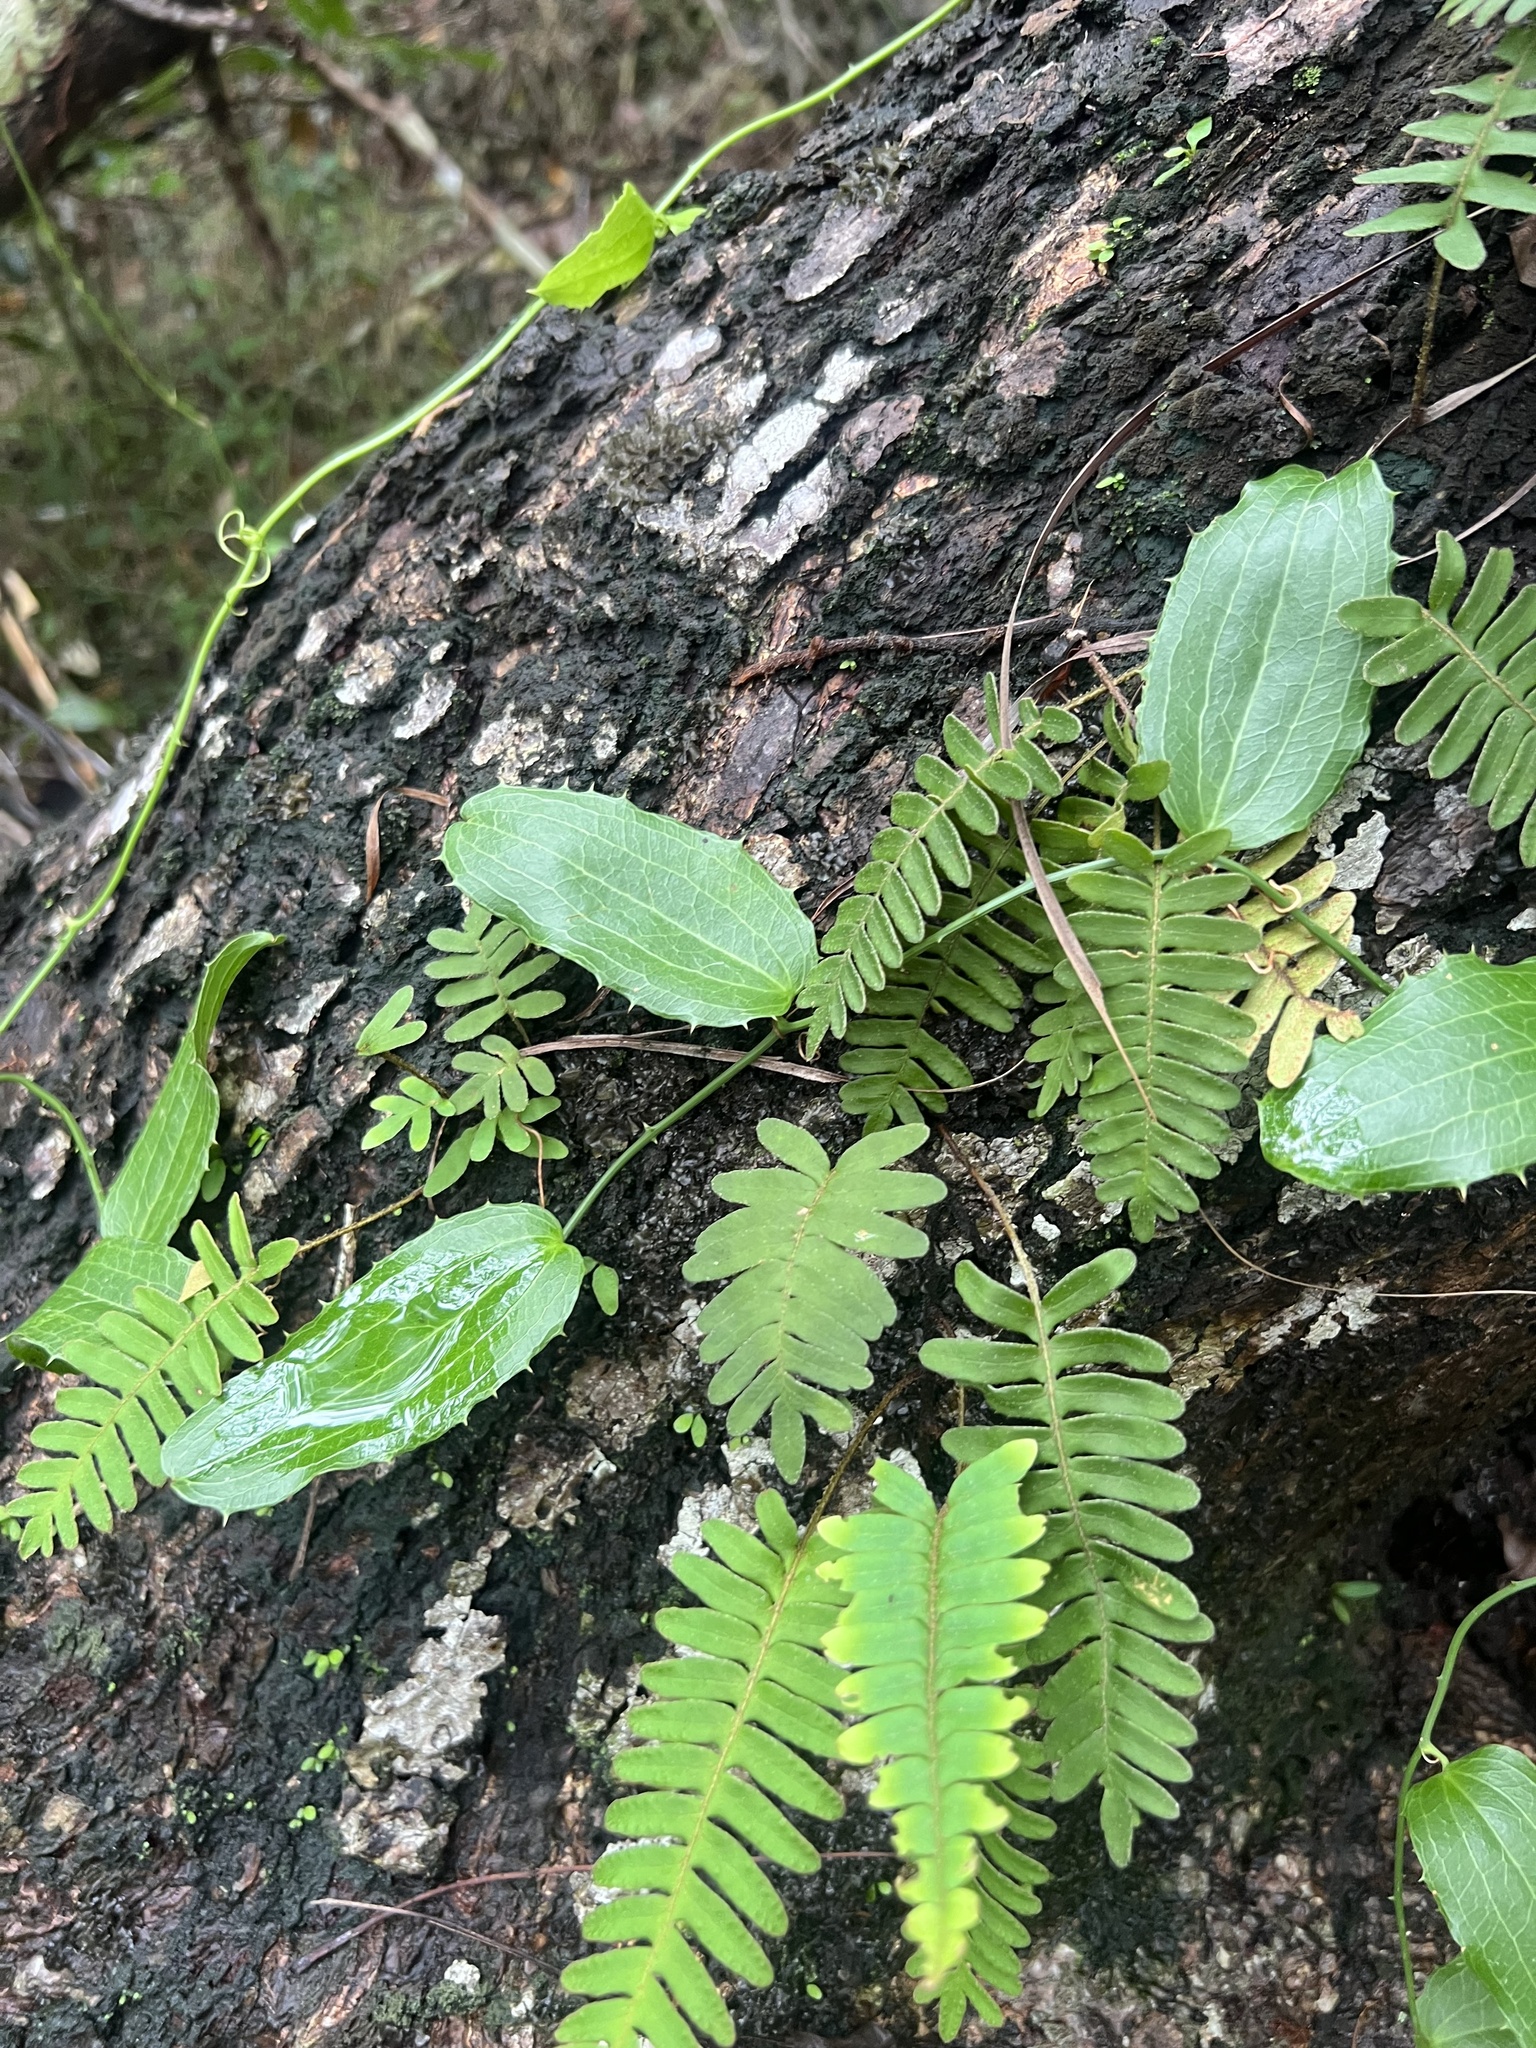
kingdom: Plantae
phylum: Tracheophyta
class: Liliopsida
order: Liliales
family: Smilacaceae
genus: Smilax
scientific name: Smilax havanensis
